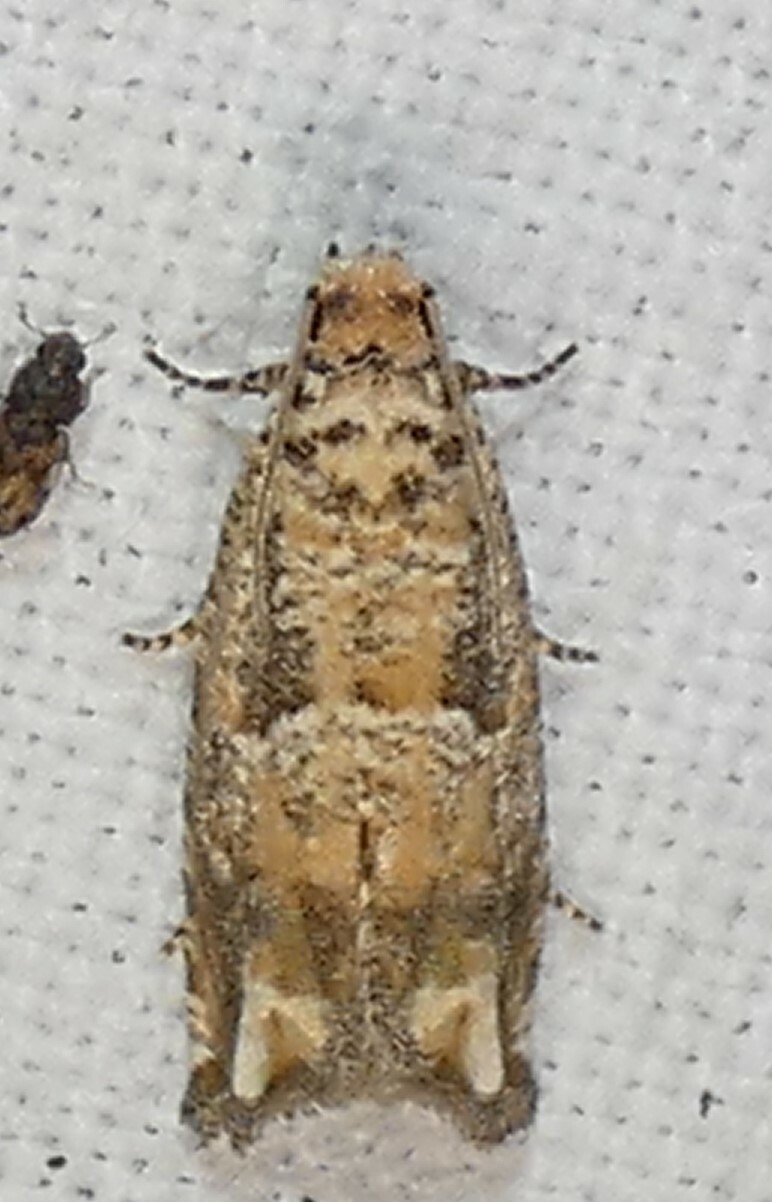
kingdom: Animalia
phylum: Arthropoda
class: Insecta
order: Lepidoptera
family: Tortricidae
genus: Epiblema
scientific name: Epiblema abruptana
